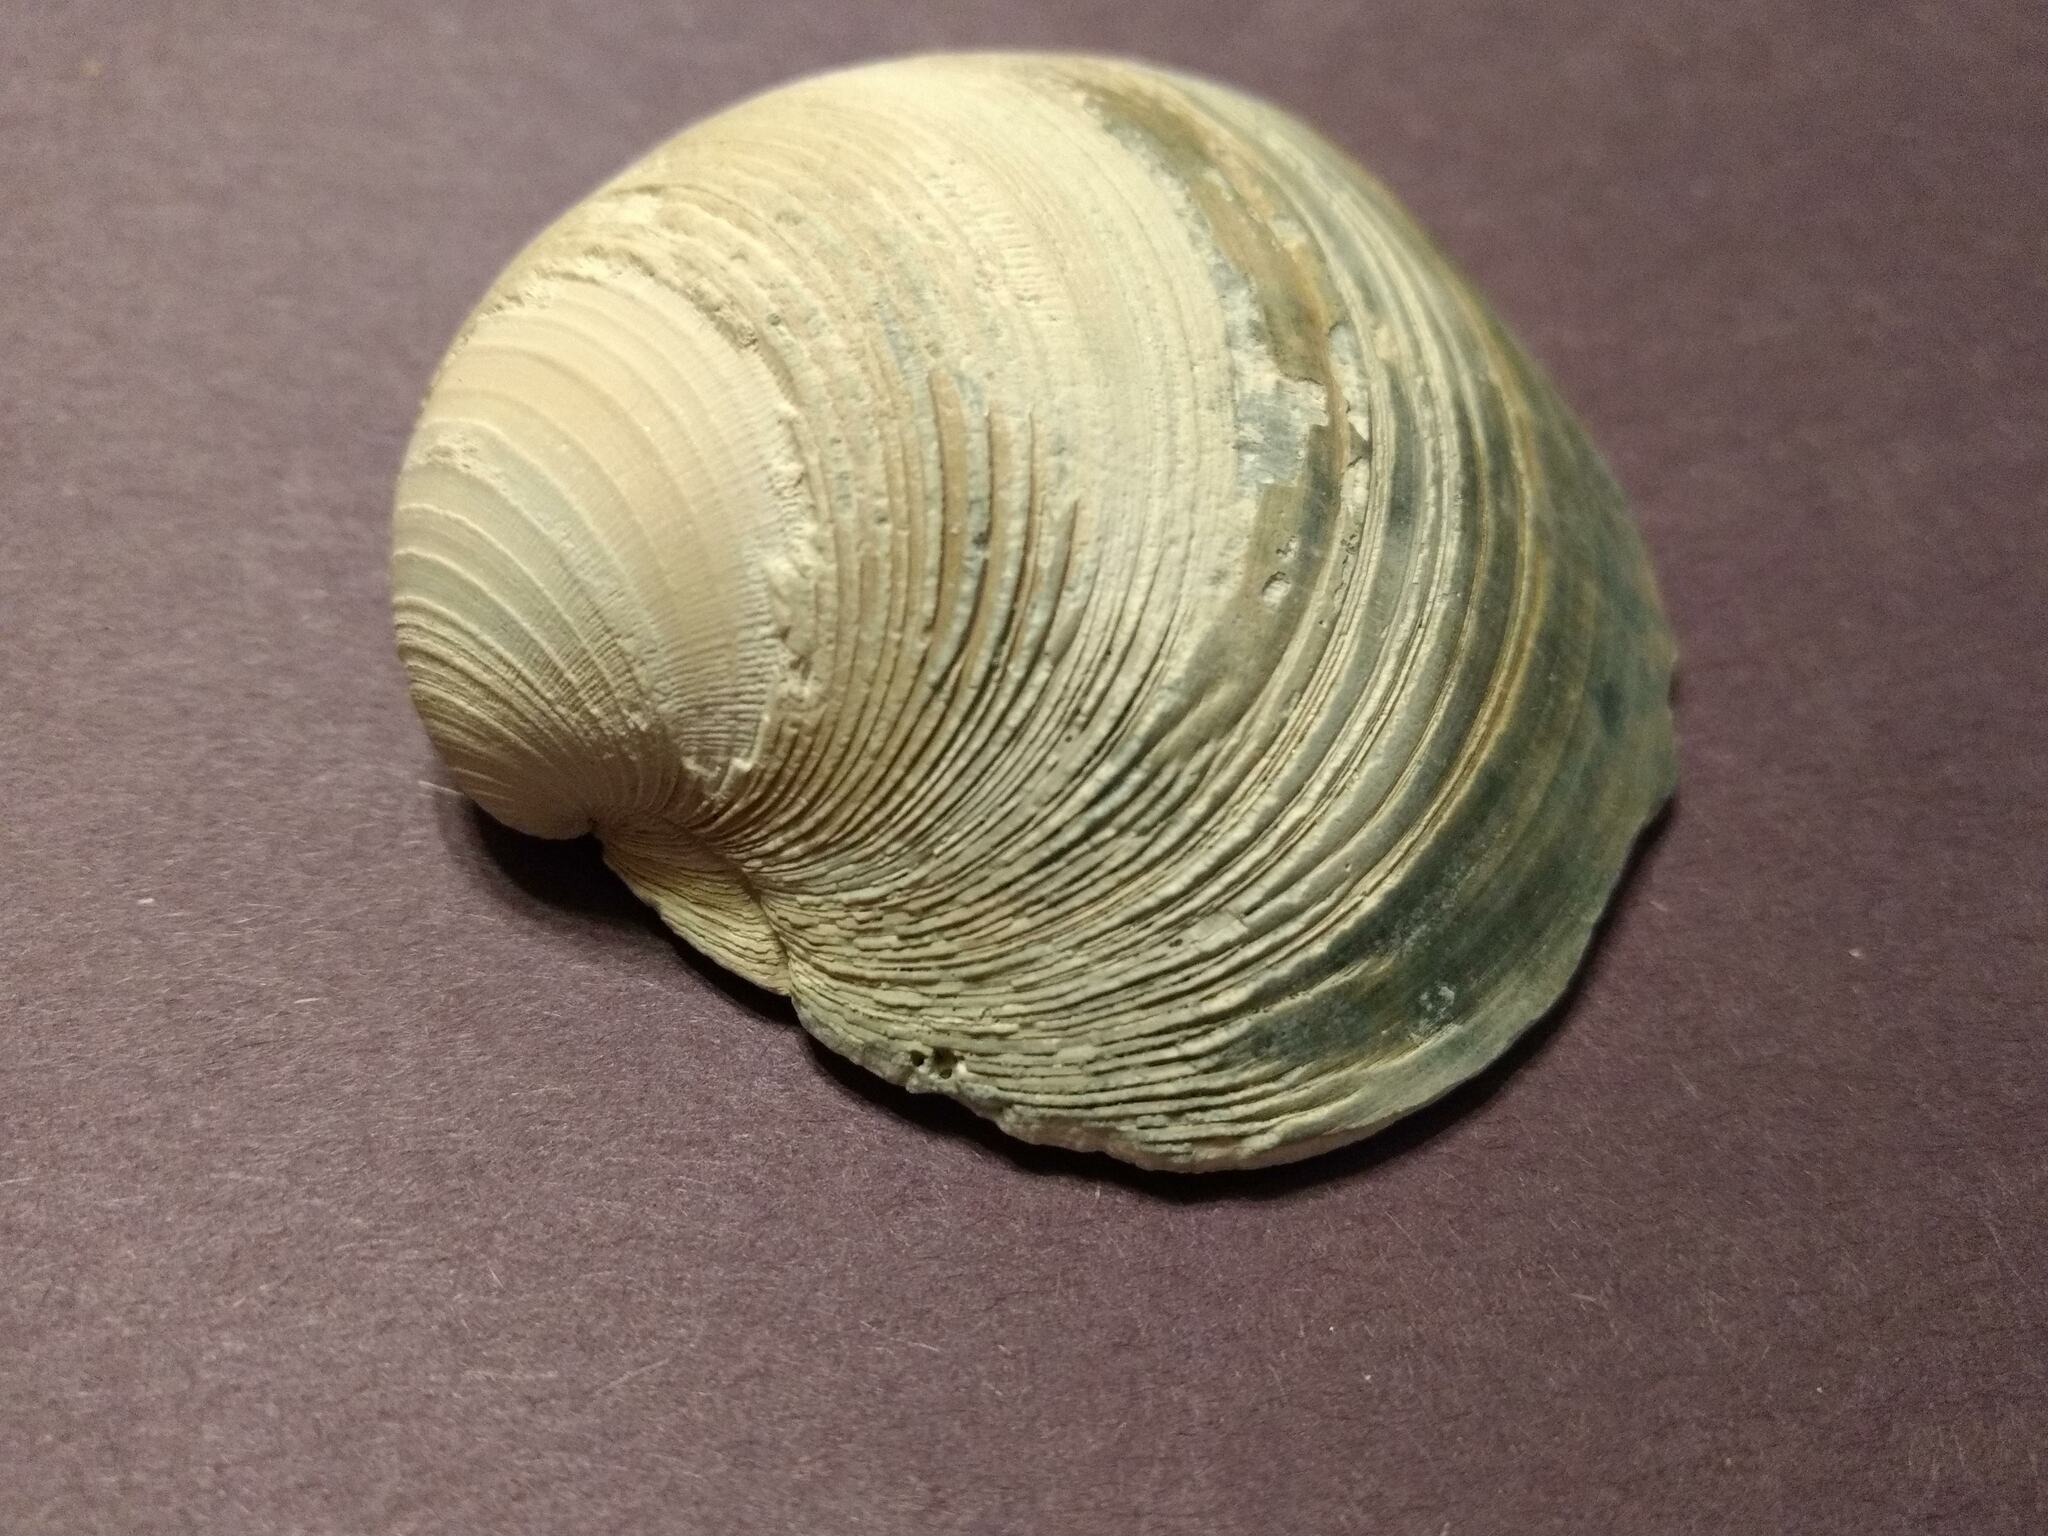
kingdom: Animalia
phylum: Mollusca
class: Bivalvia
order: Venerida
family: Veneridae
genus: Mercenaria
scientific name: Mercenaria campechiensis
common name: Südliche quahog-muschel
